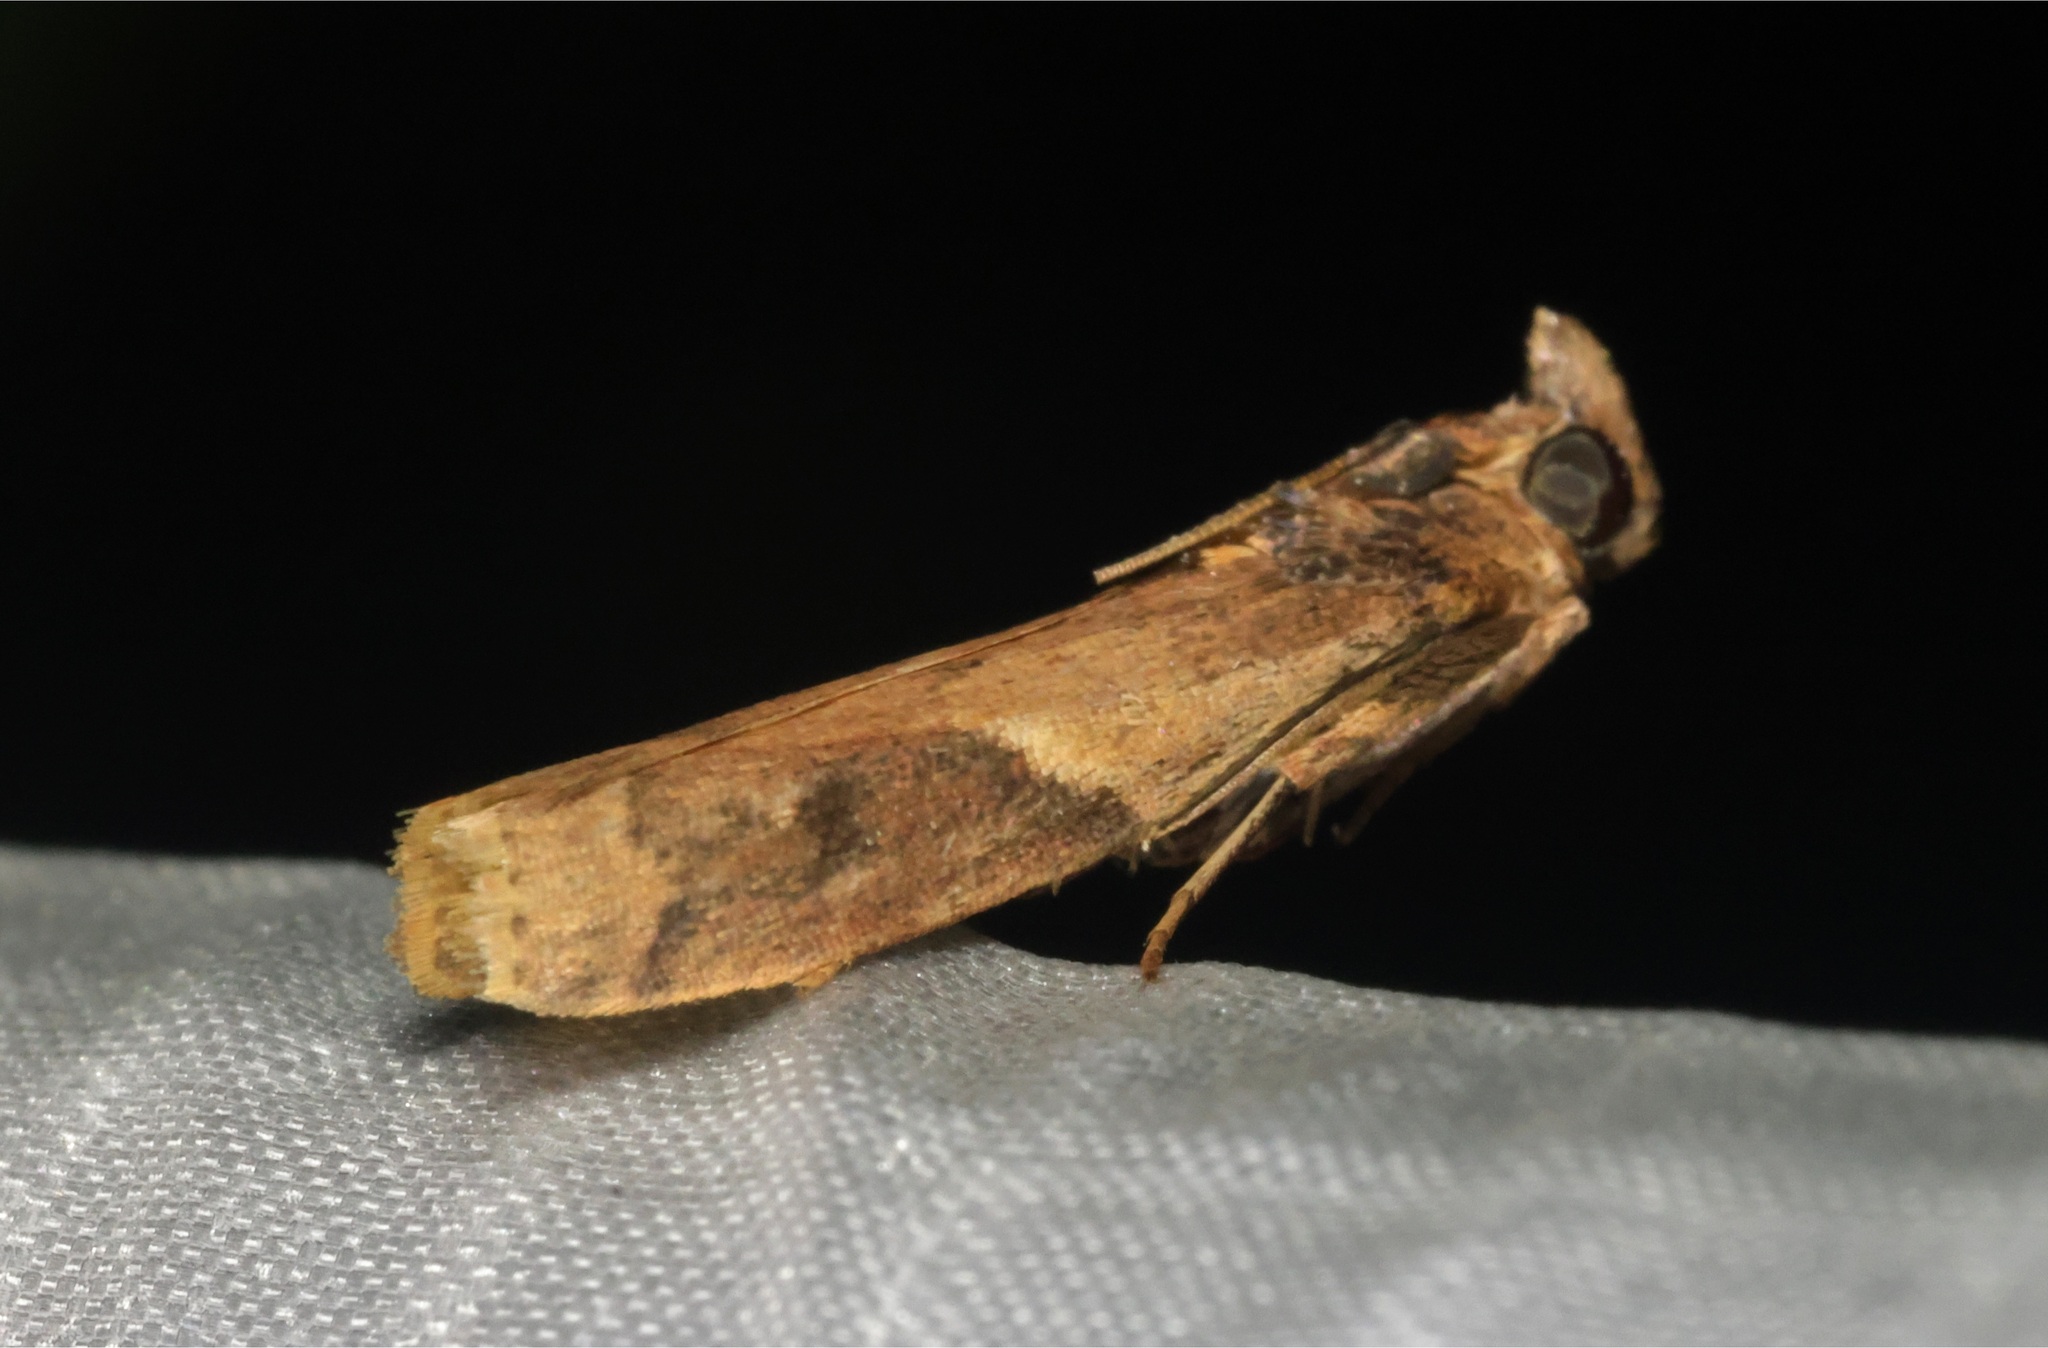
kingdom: Animalia
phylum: Arthropoda
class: Insecta
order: Lepidoptera
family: Pyralidae
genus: Volobilis
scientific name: Volobilis biplaga
